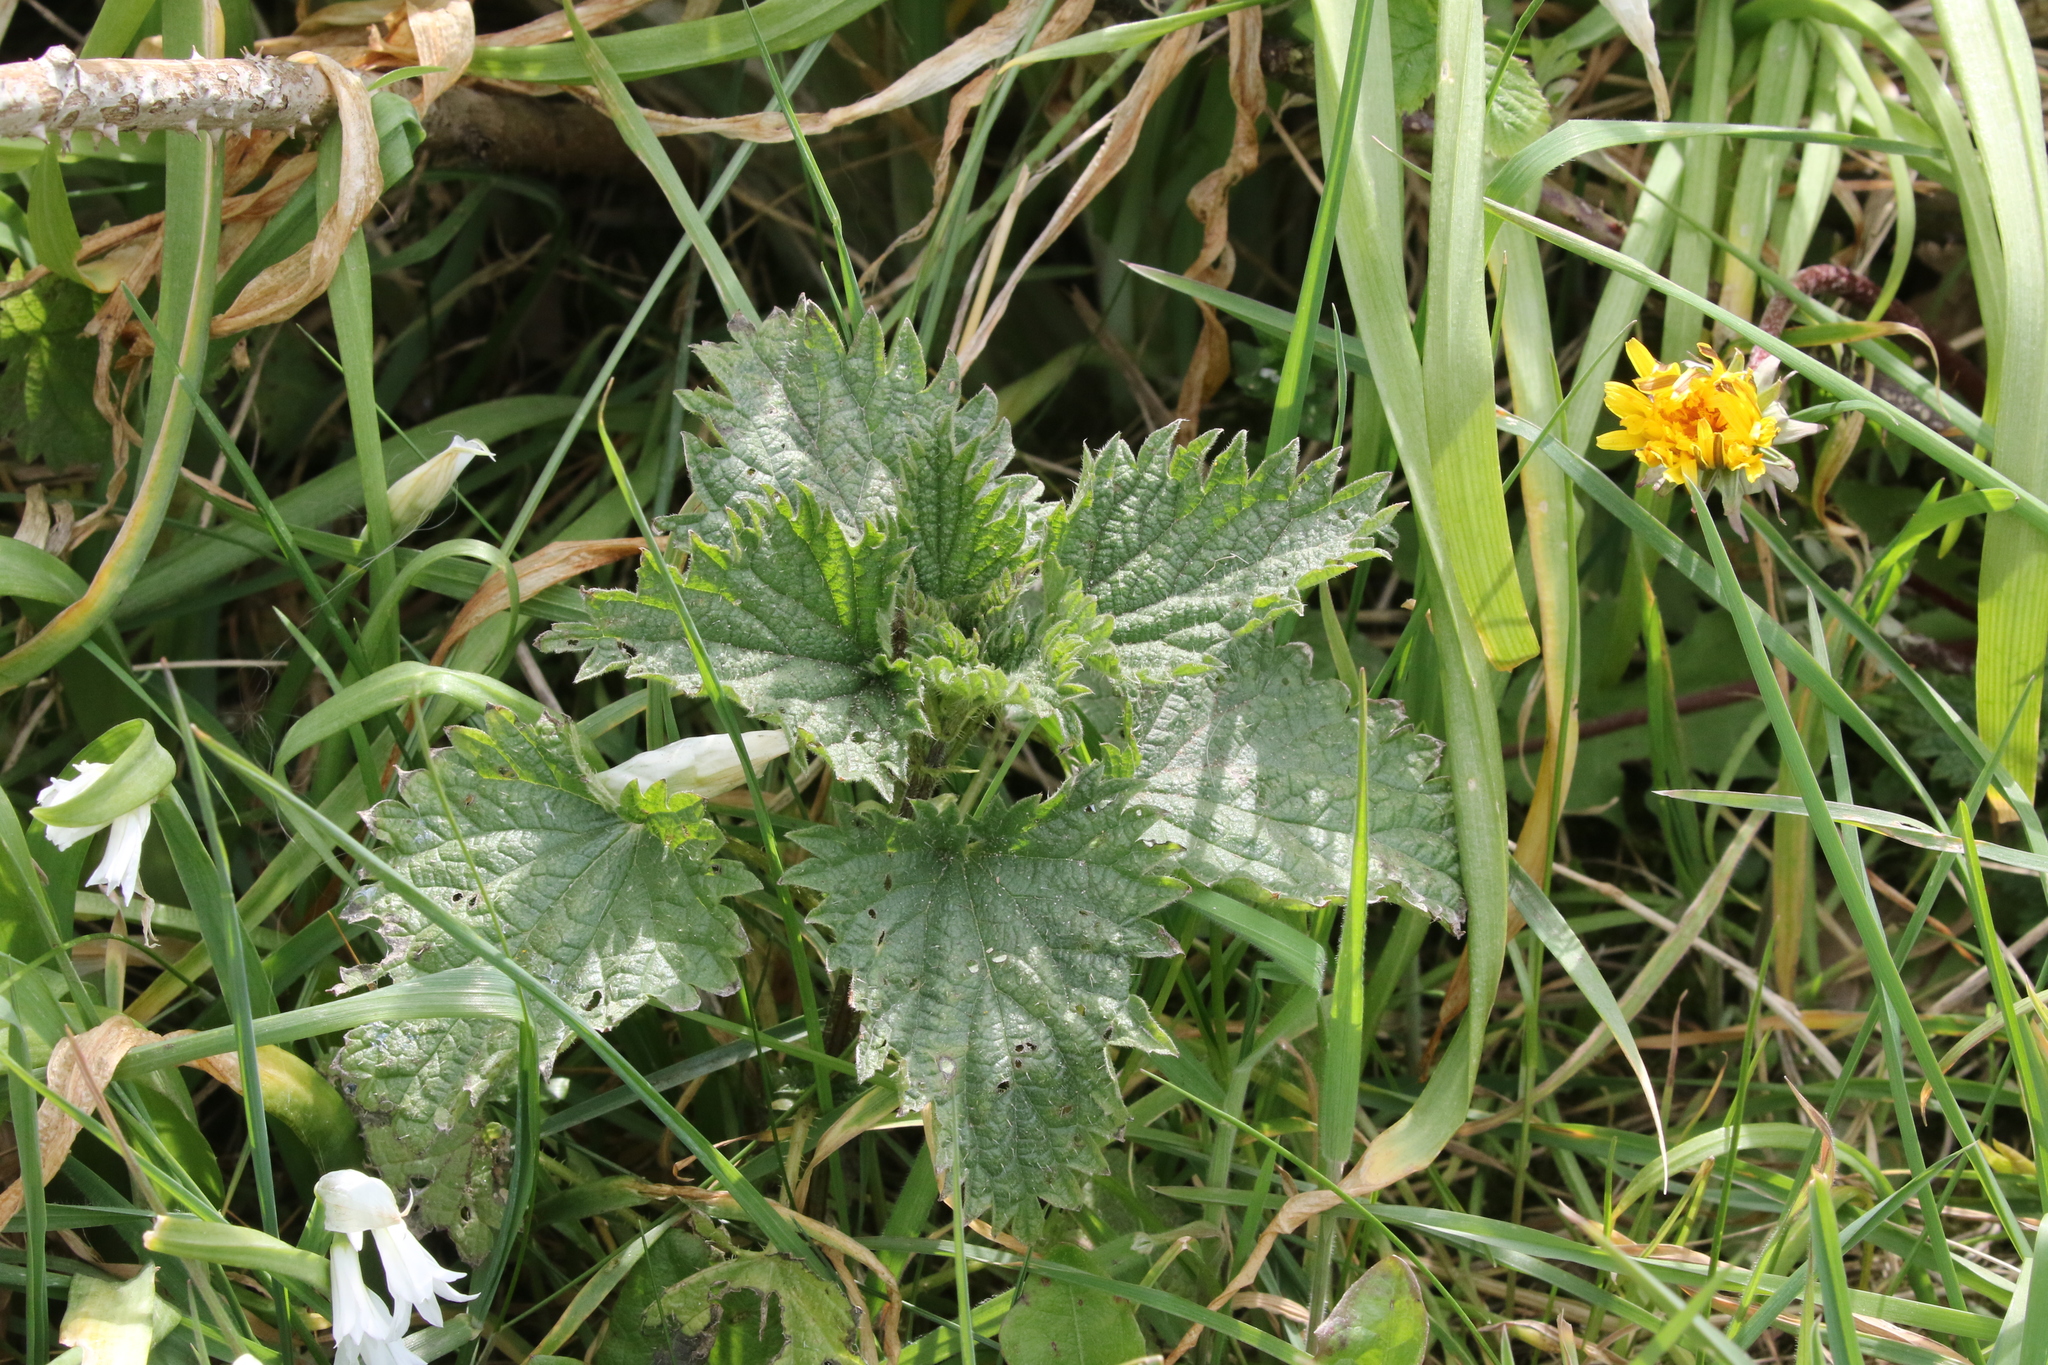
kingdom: Plantae
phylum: Tracheophyta
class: Magnoliopsida
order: Rosales
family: Urticaceae
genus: Urtica
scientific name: Urtica dioica
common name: Common nettle
